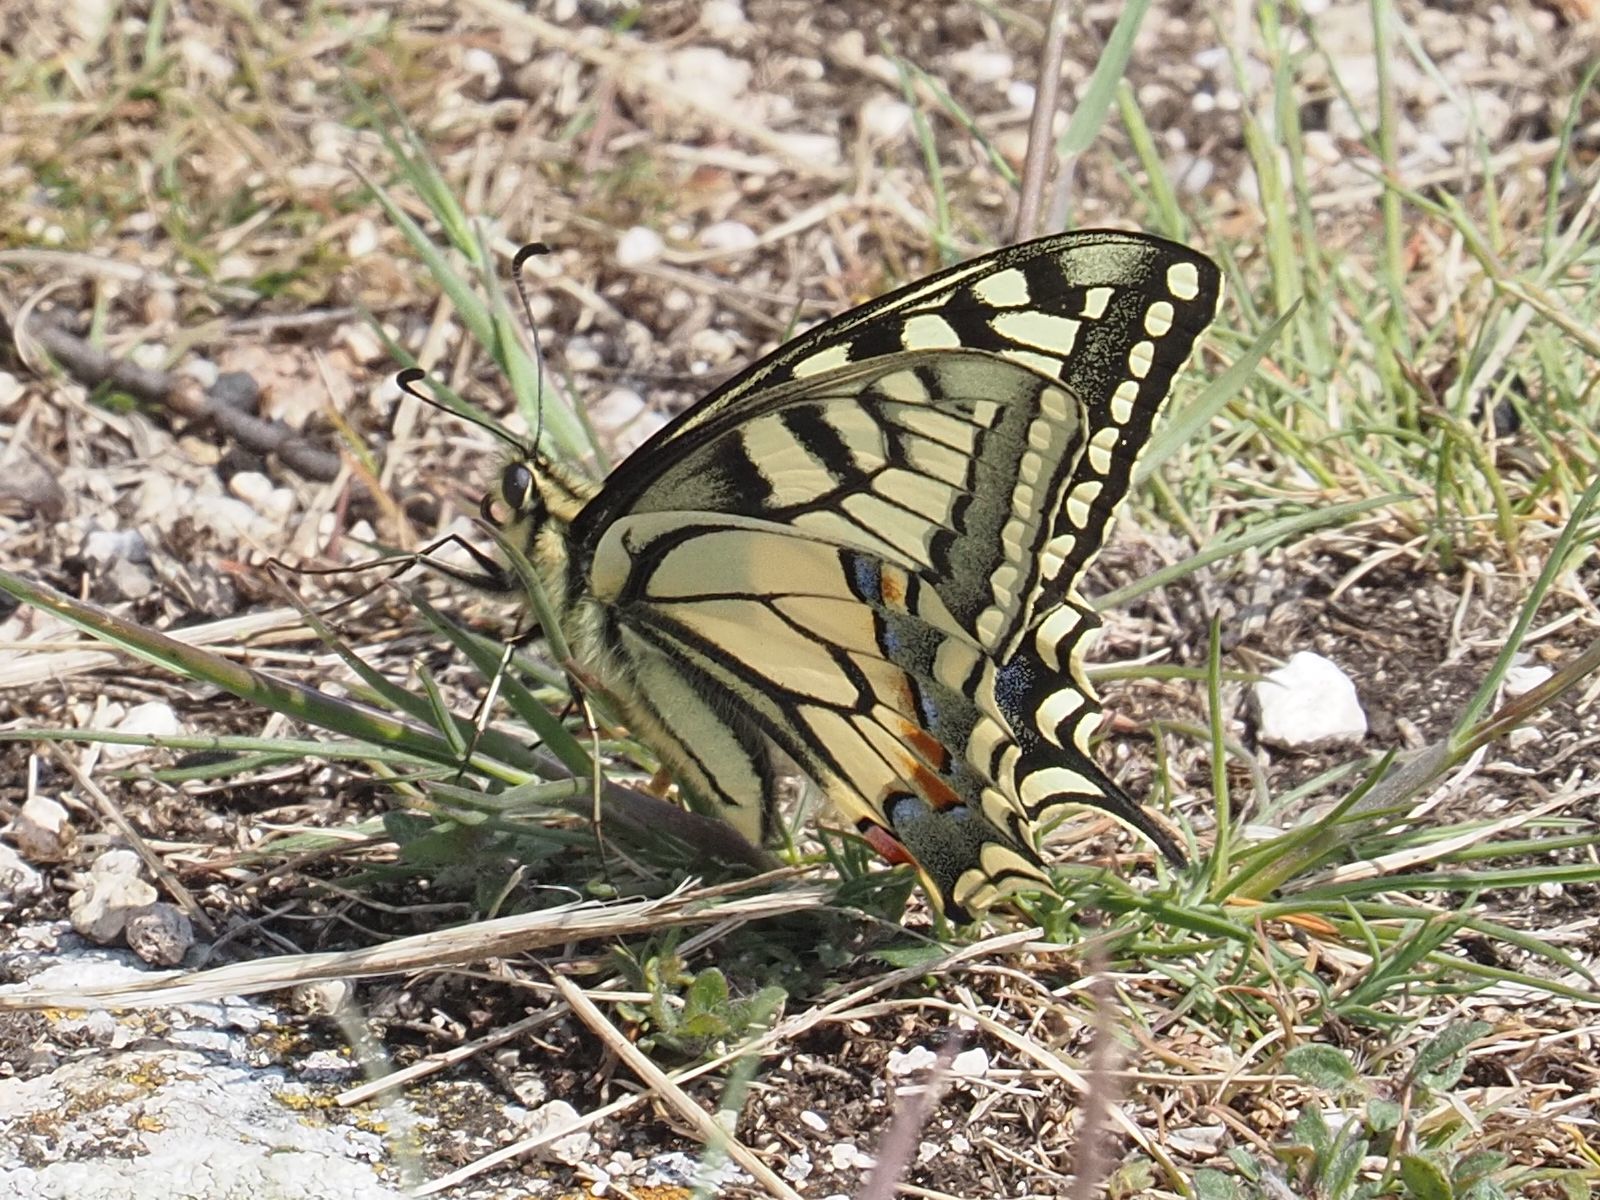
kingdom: Animalia
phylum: Arthropoda
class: Insecta
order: Lepidoptera
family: Papilionidae
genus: Papilio
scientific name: Papilio machaon
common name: Swallowtail
